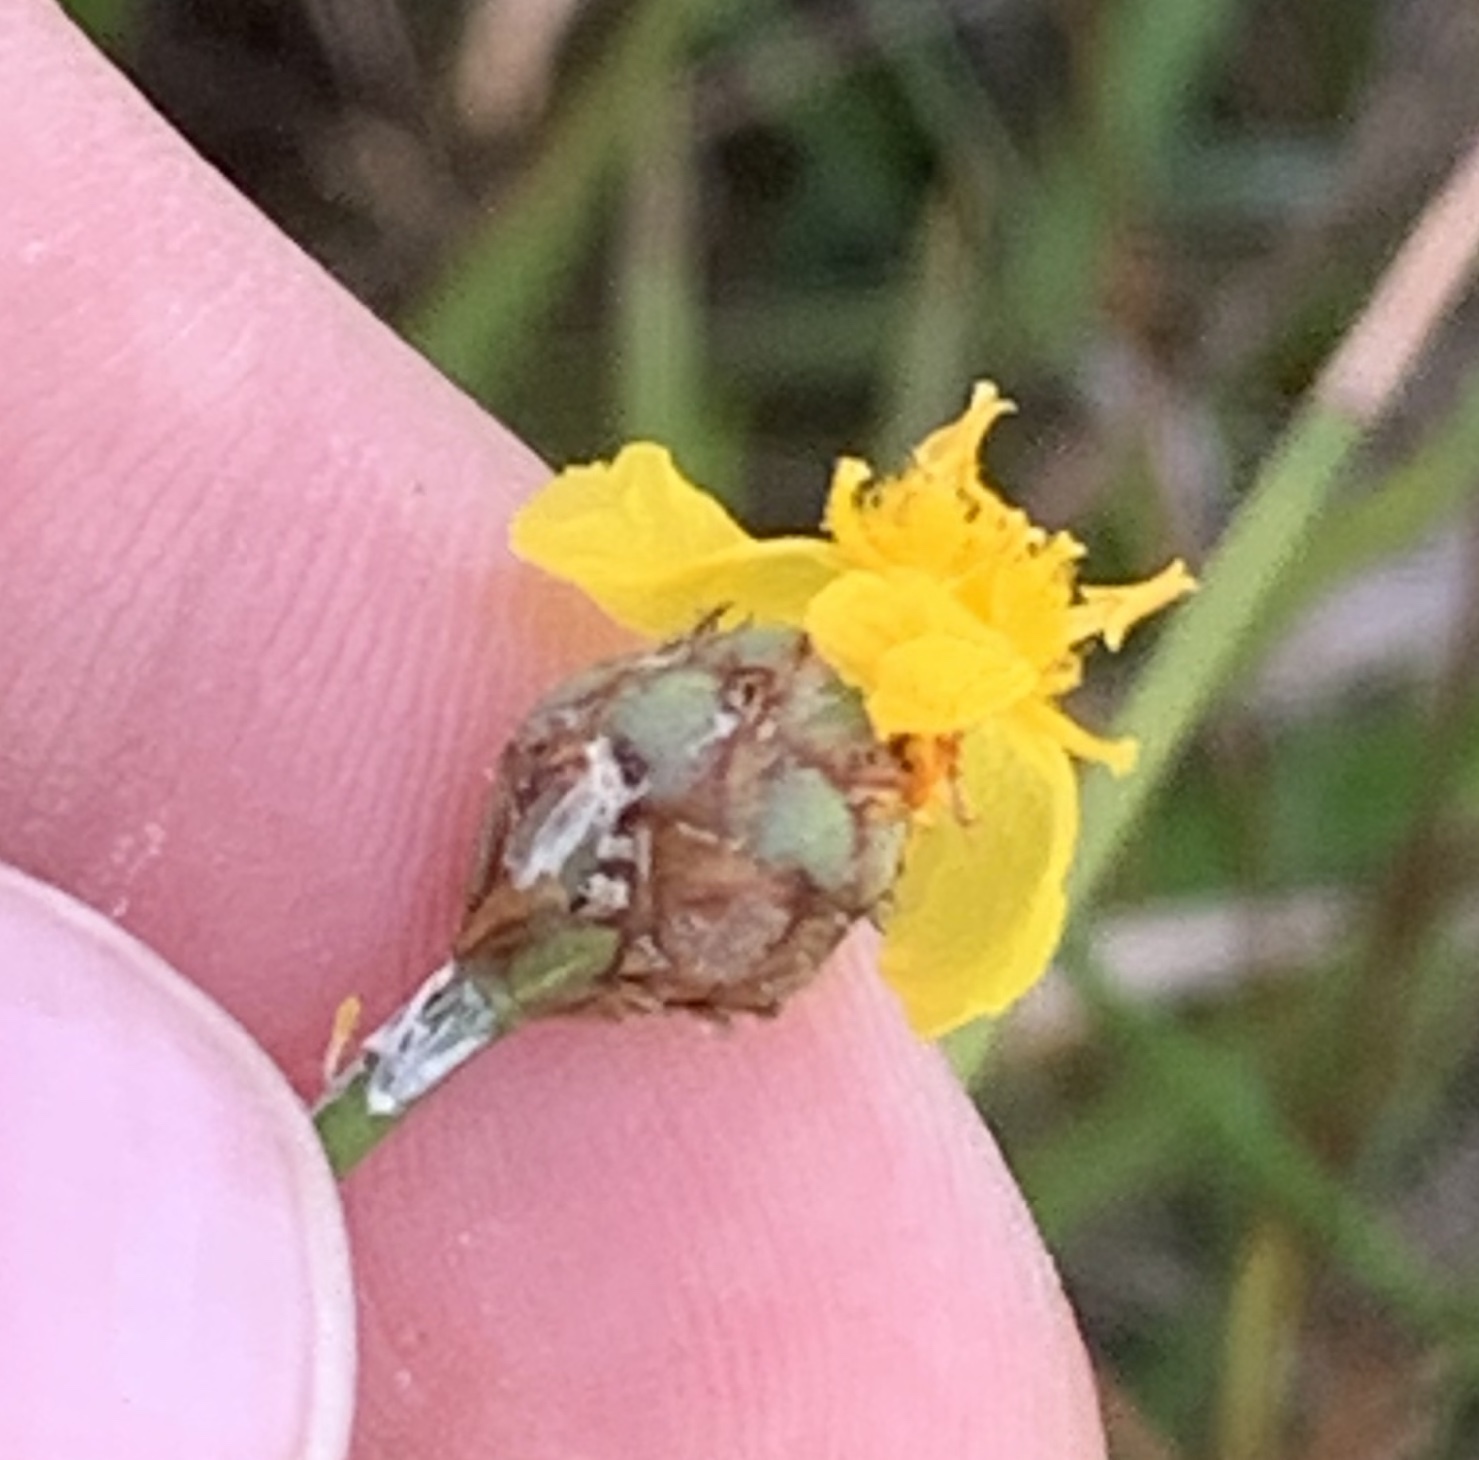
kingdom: Plantae
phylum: Tracheophyta
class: Liliopsida
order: Poales
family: Xyridaceae
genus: Xyris
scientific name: Xyris elliottii
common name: Elliot's yelloweyed grass
